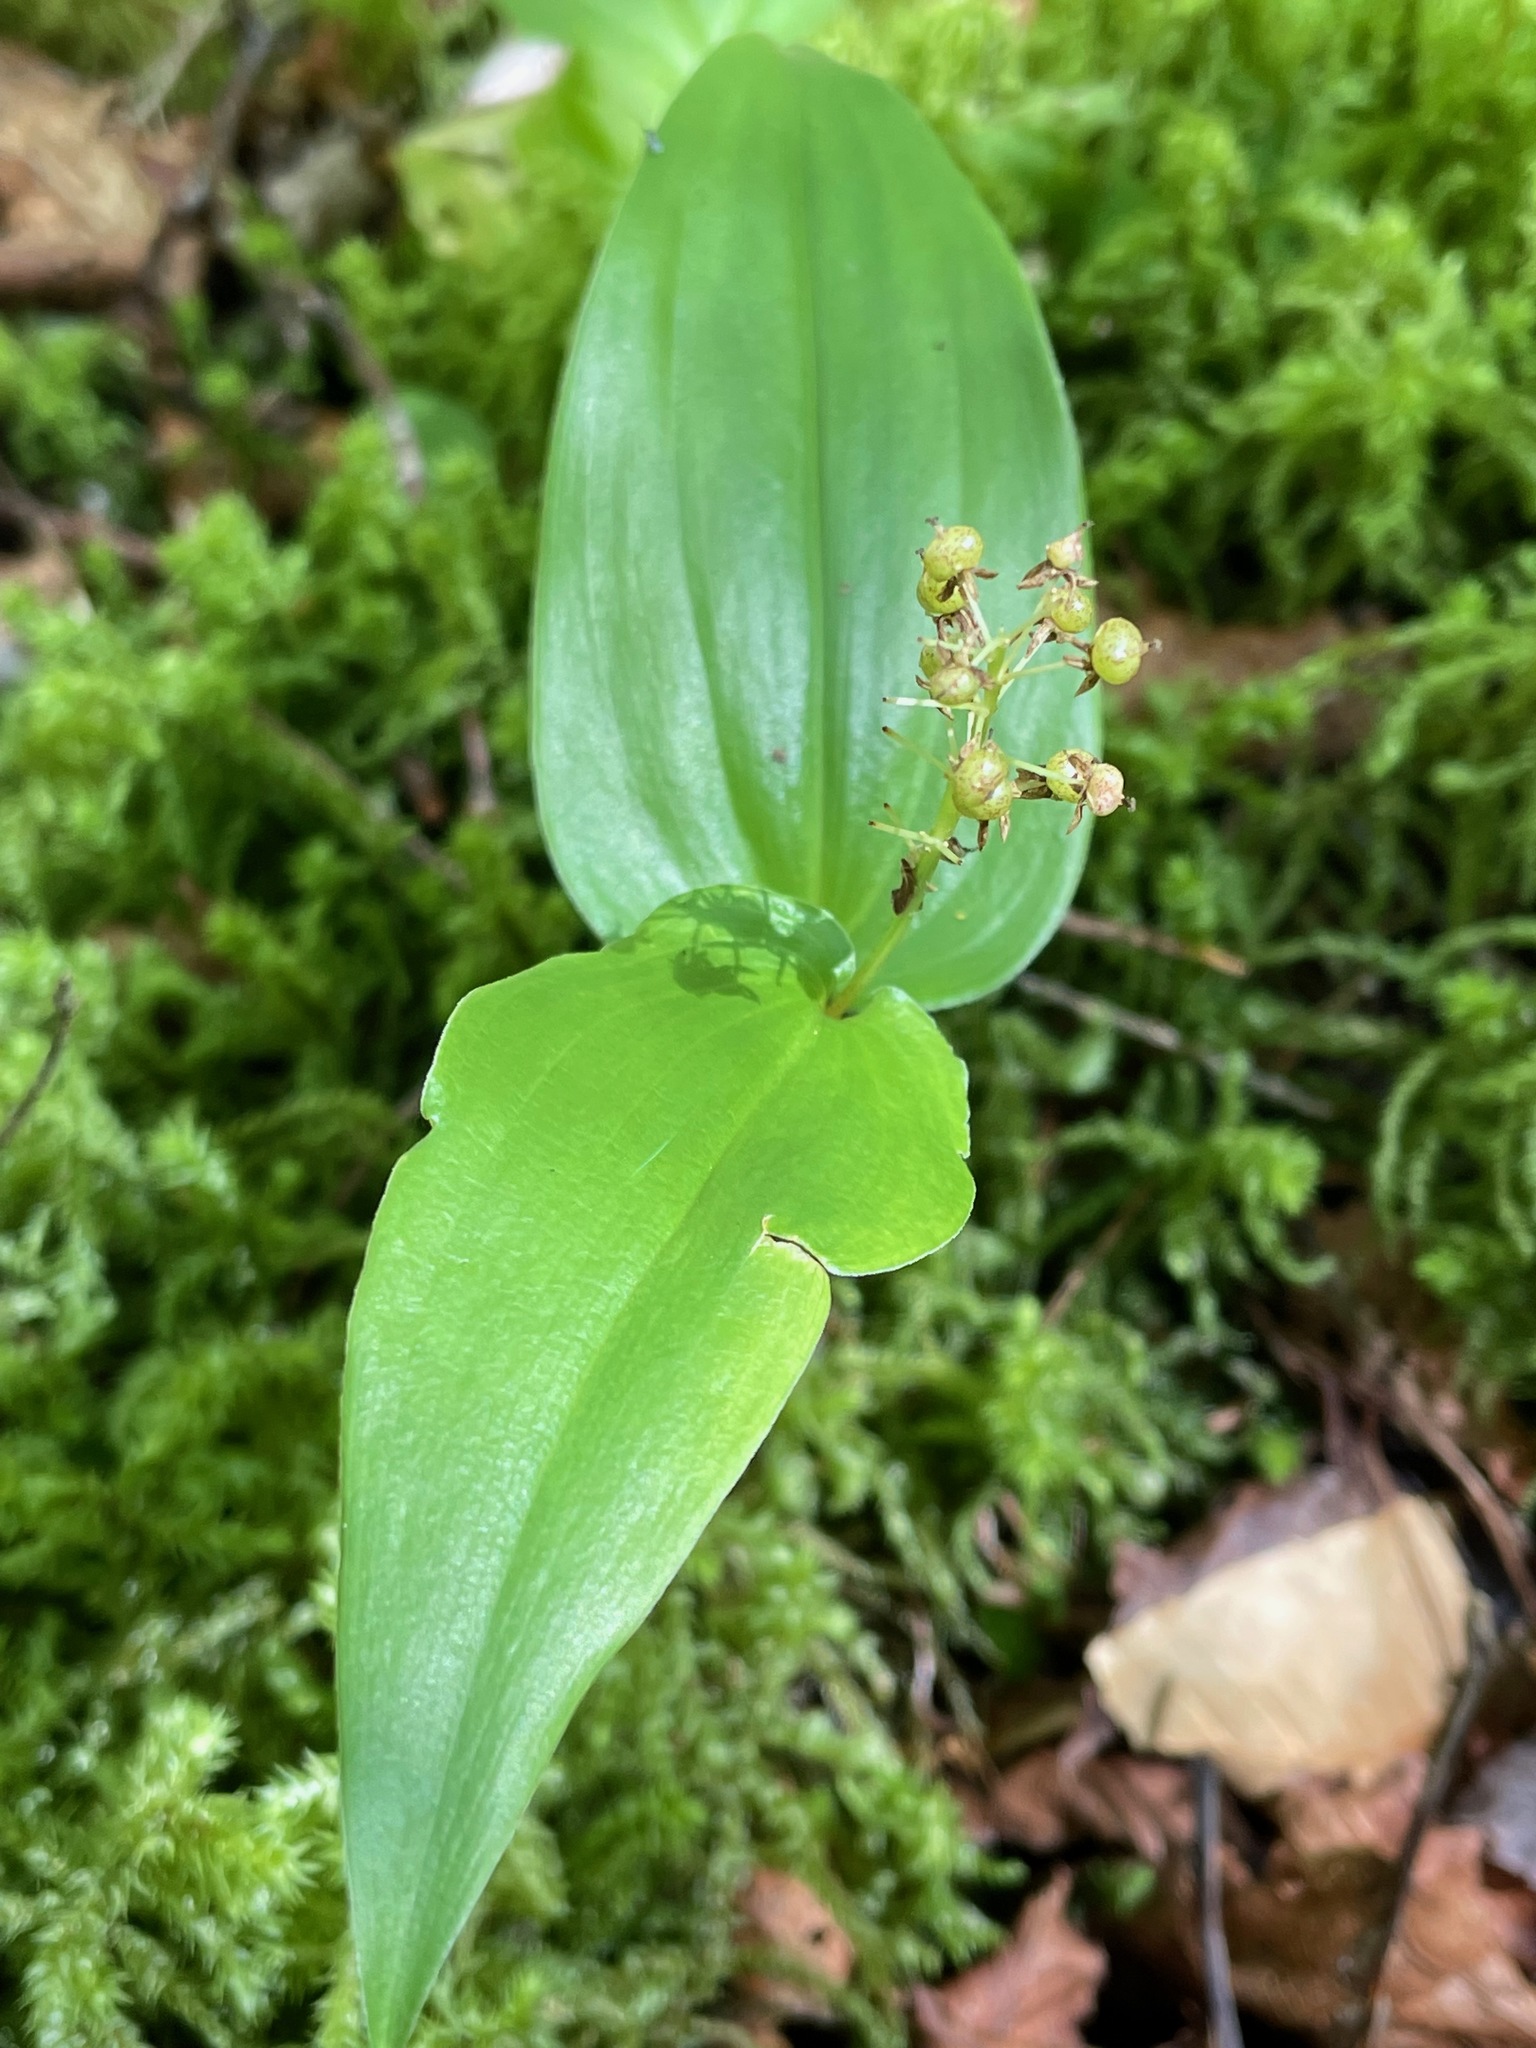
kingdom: Plantae
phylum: Tracheophyta
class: Liliopsida
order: Asparagales
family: Asparagaceae
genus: Maianthemum
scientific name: Maianthemum canadense
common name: False lily-of-the-valley
